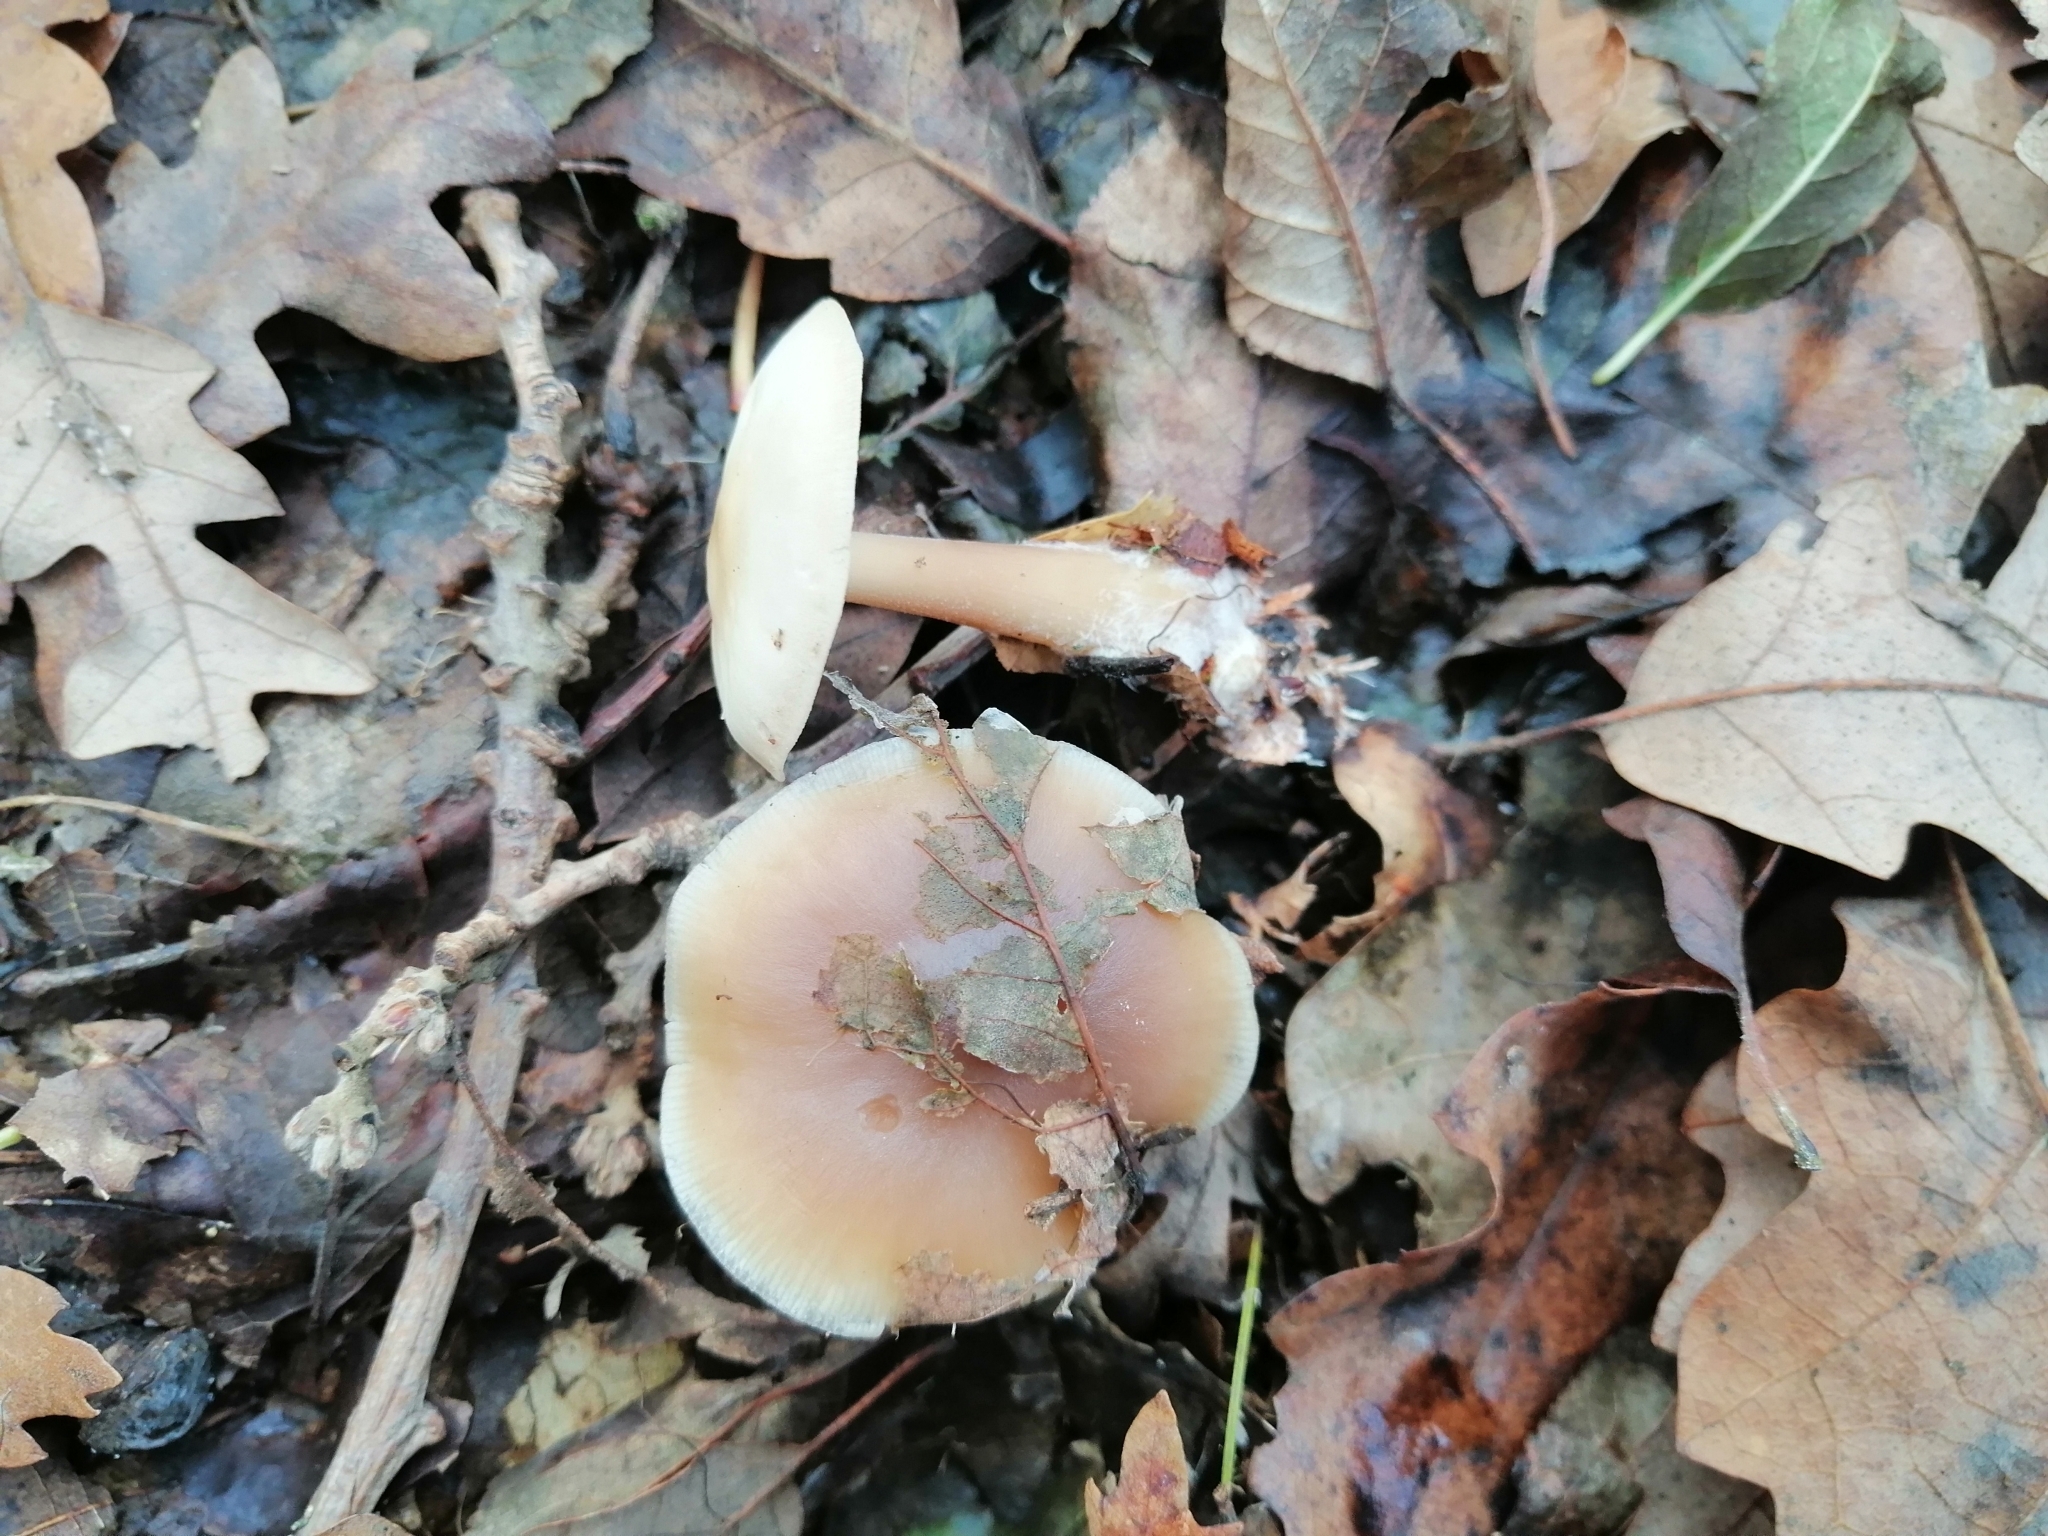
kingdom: Fungi
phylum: Basidiomycota
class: Agaricomycetes
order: Agaricales
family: Omphalotaceae
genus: Rhodocollybia
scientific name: Rhodocollybia butyracea
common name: Butter cap
